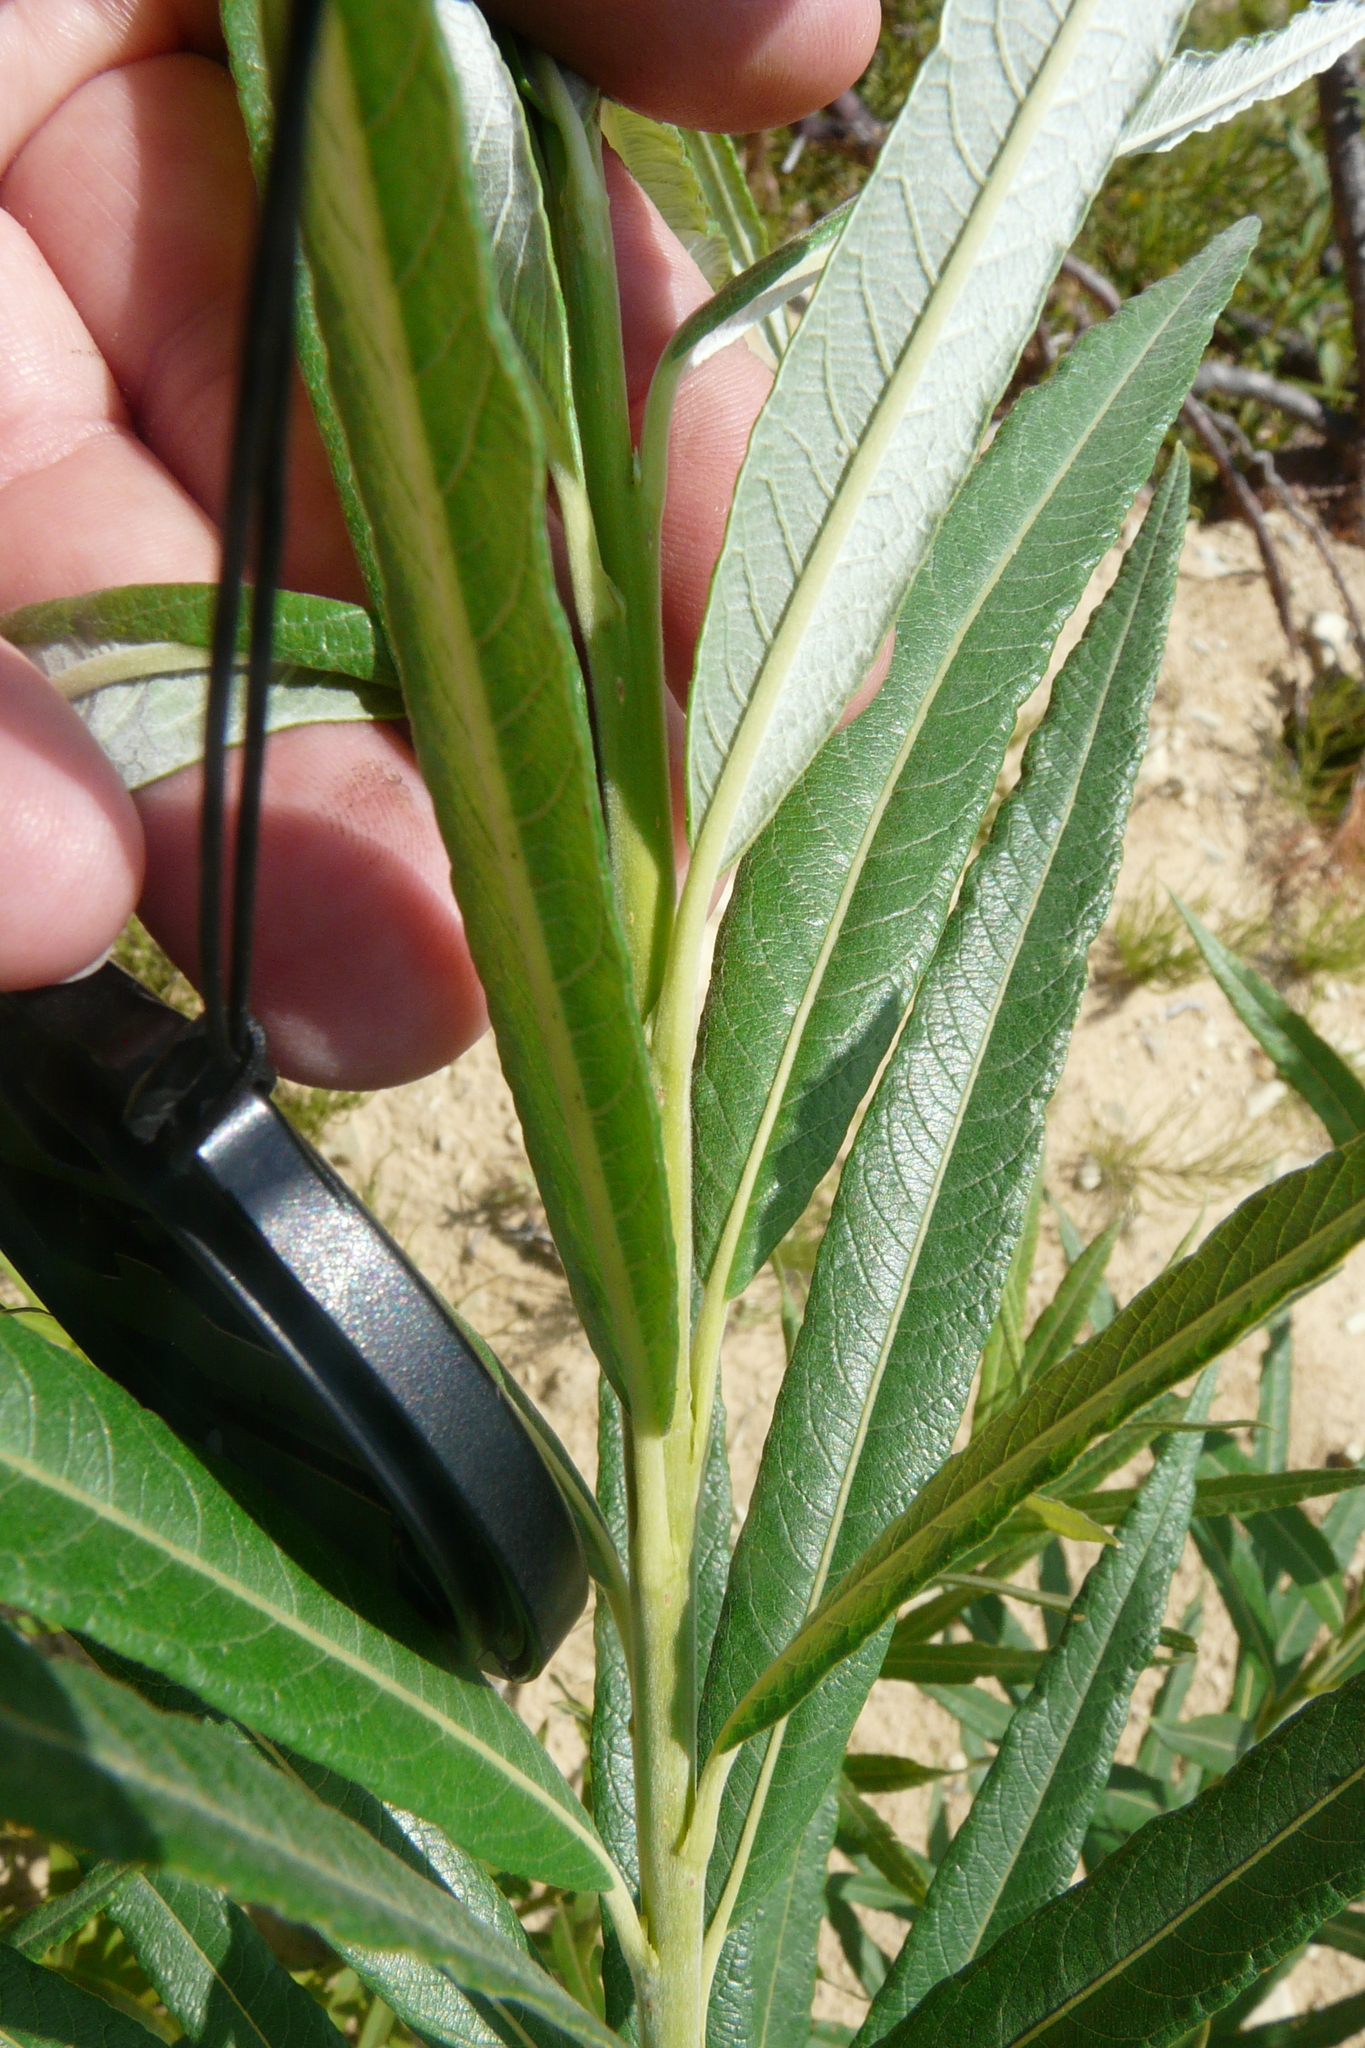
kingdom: Plantae
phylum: Tracheophyta
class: Magnoliopsida
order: Malpighiales
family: Salicaceae
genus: Salix
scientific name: Salix viminalis
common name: Osier
